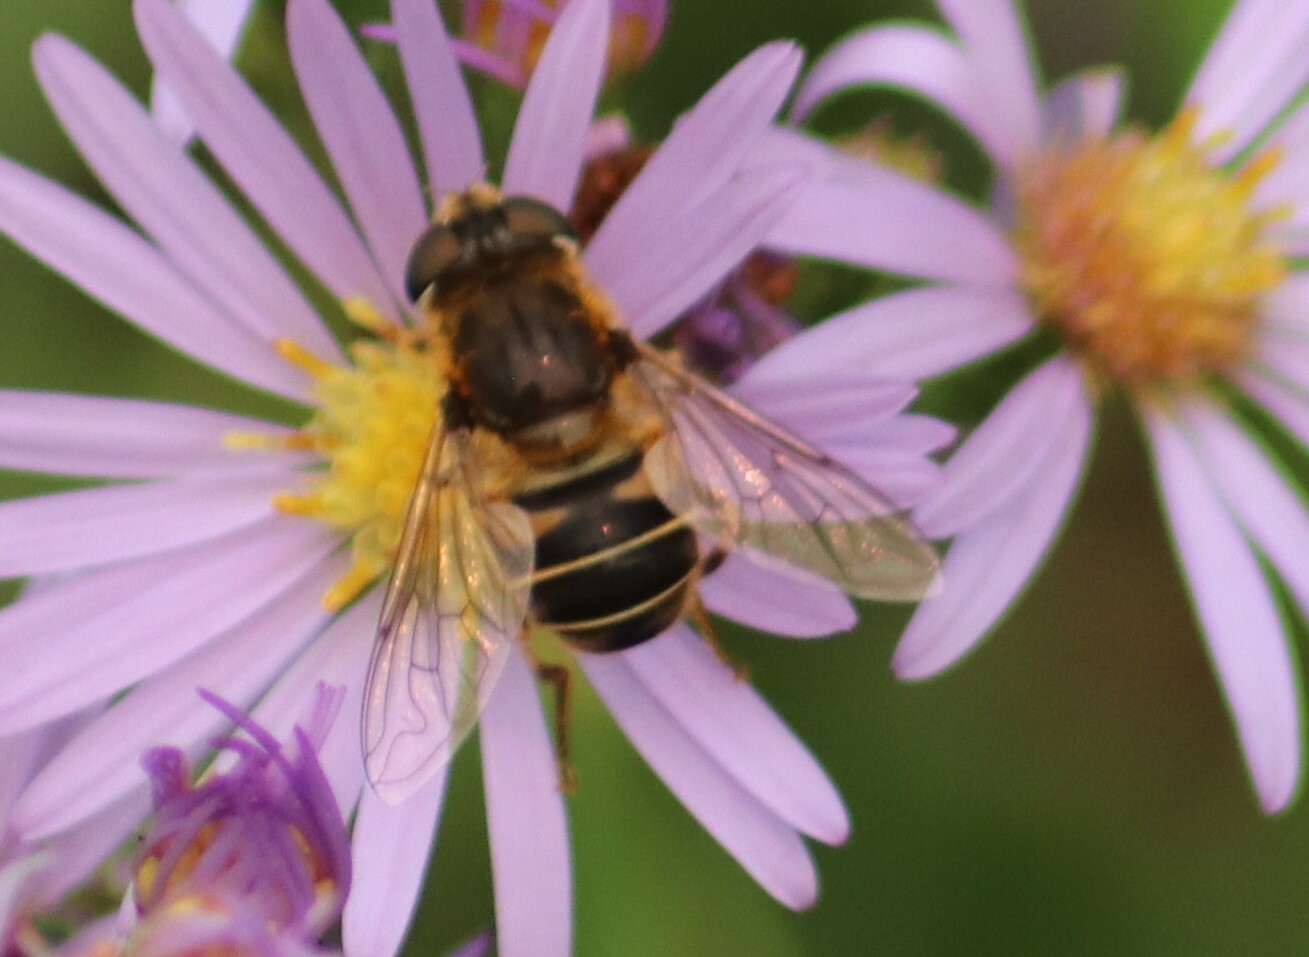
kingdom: Animalia
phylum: Arthropoda
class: Insecta
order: Diptera
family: Syrphidae
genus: Eristalis
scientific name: Eristalis nemorum
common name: Orange-spined drone fly
